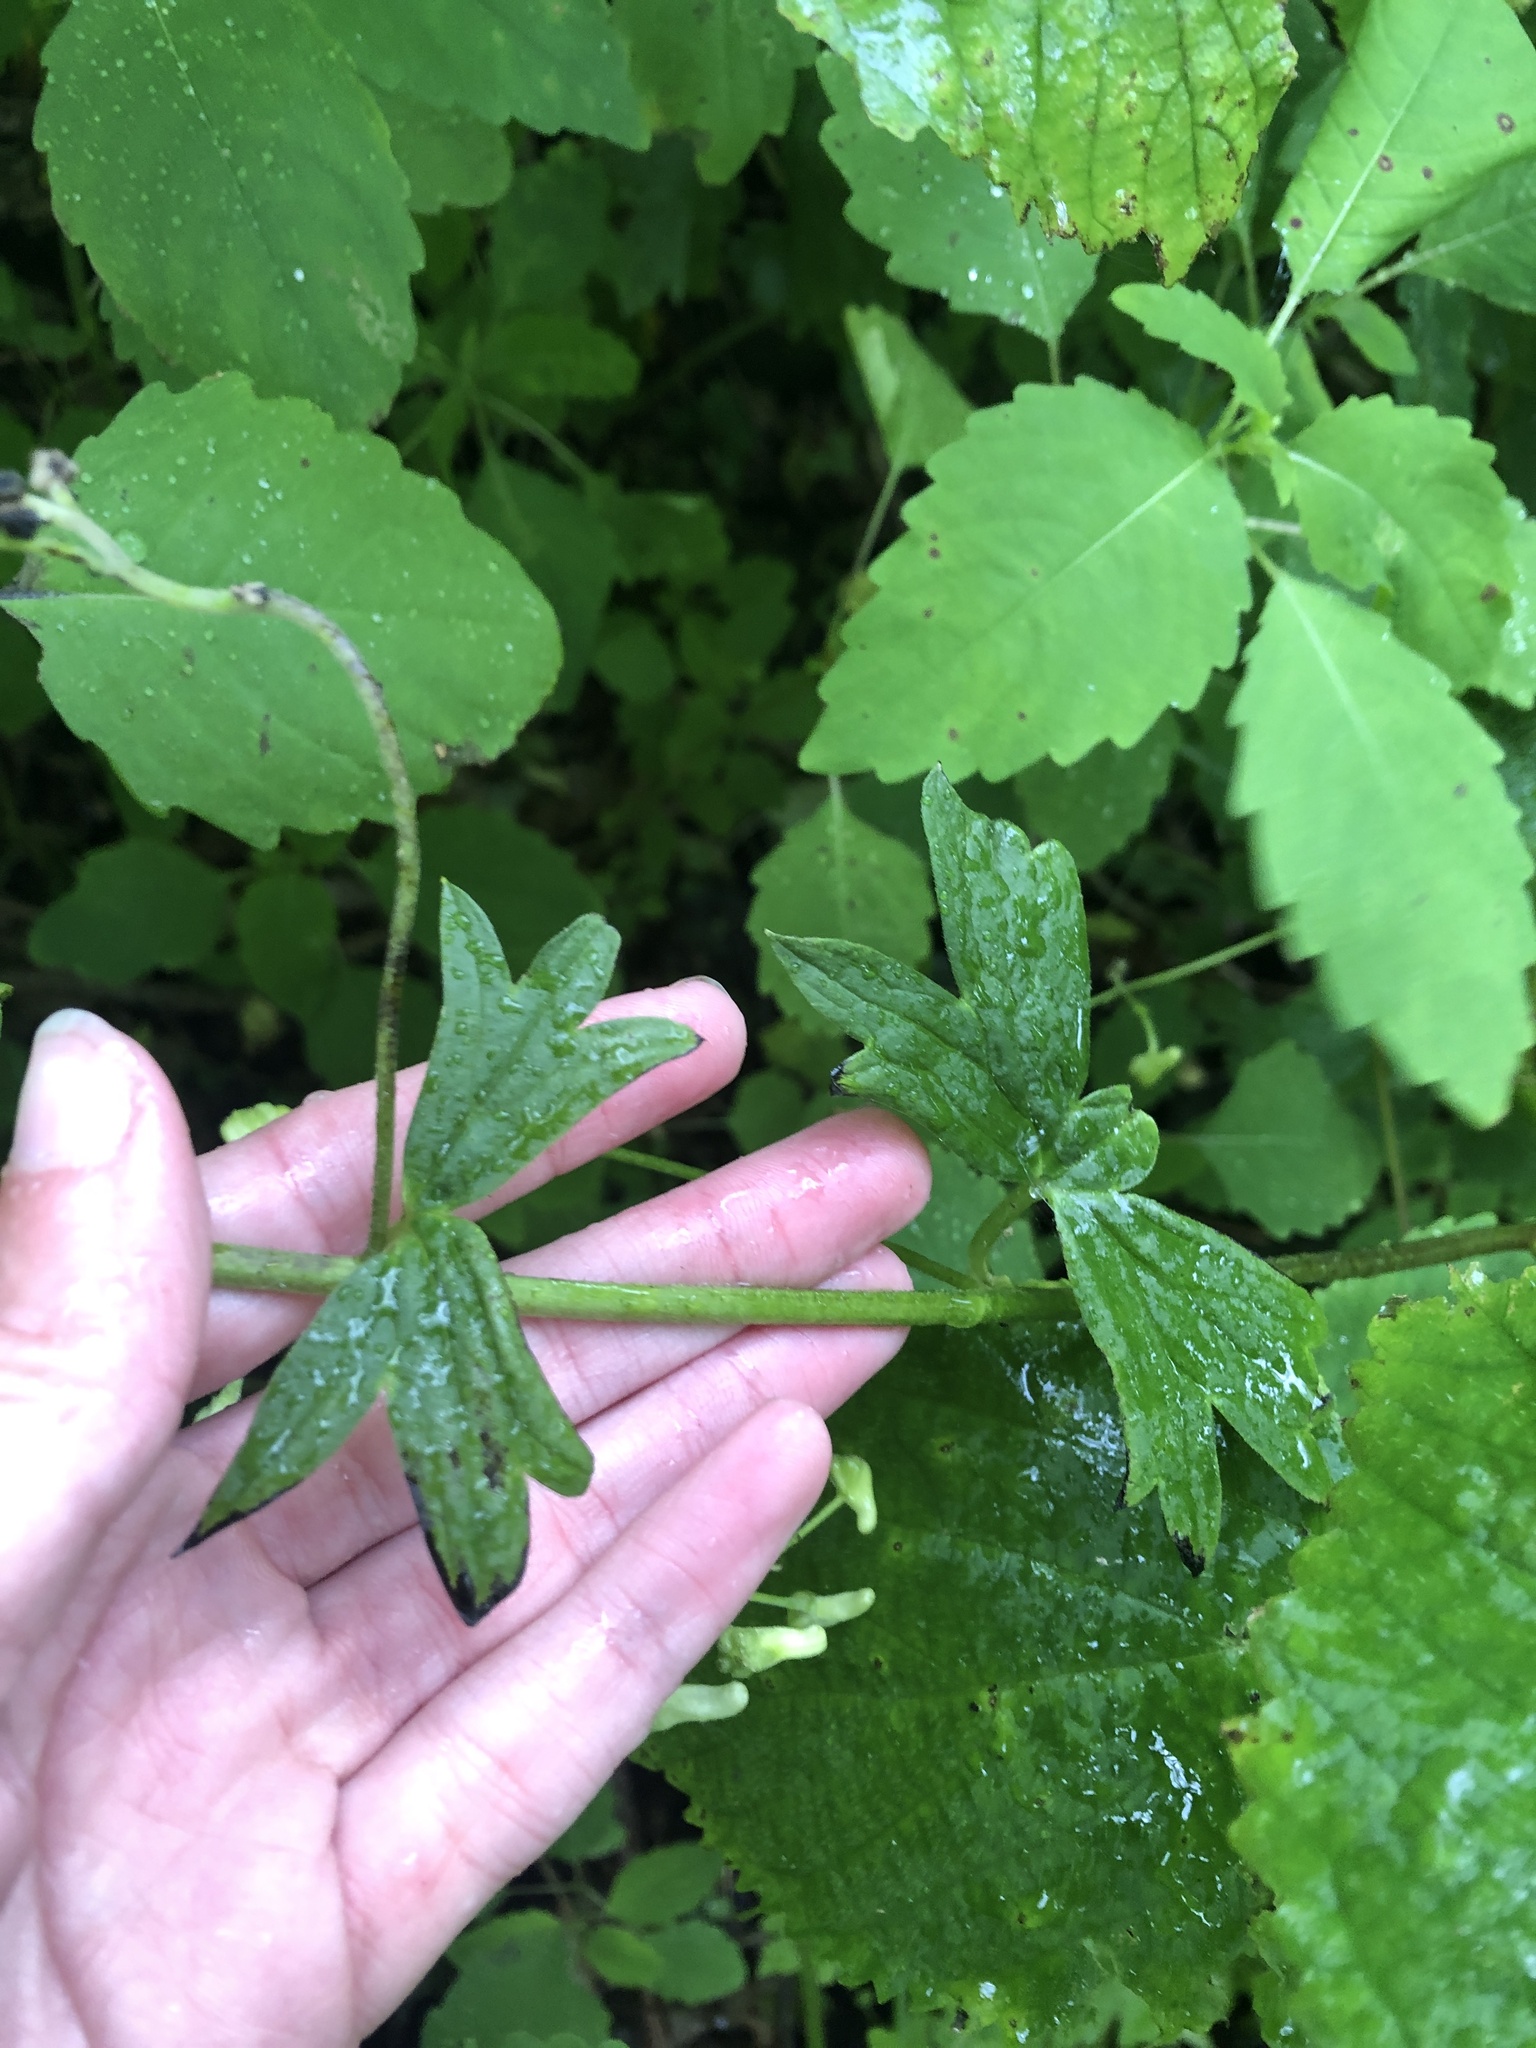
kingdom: Plantae
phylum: Tracheophyta
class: Magnoliopsida
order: Ranunculales
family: Ranunculaceae
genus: Aconitum
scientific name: Aconitum reclinatum
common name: Trailing wolfsbane
